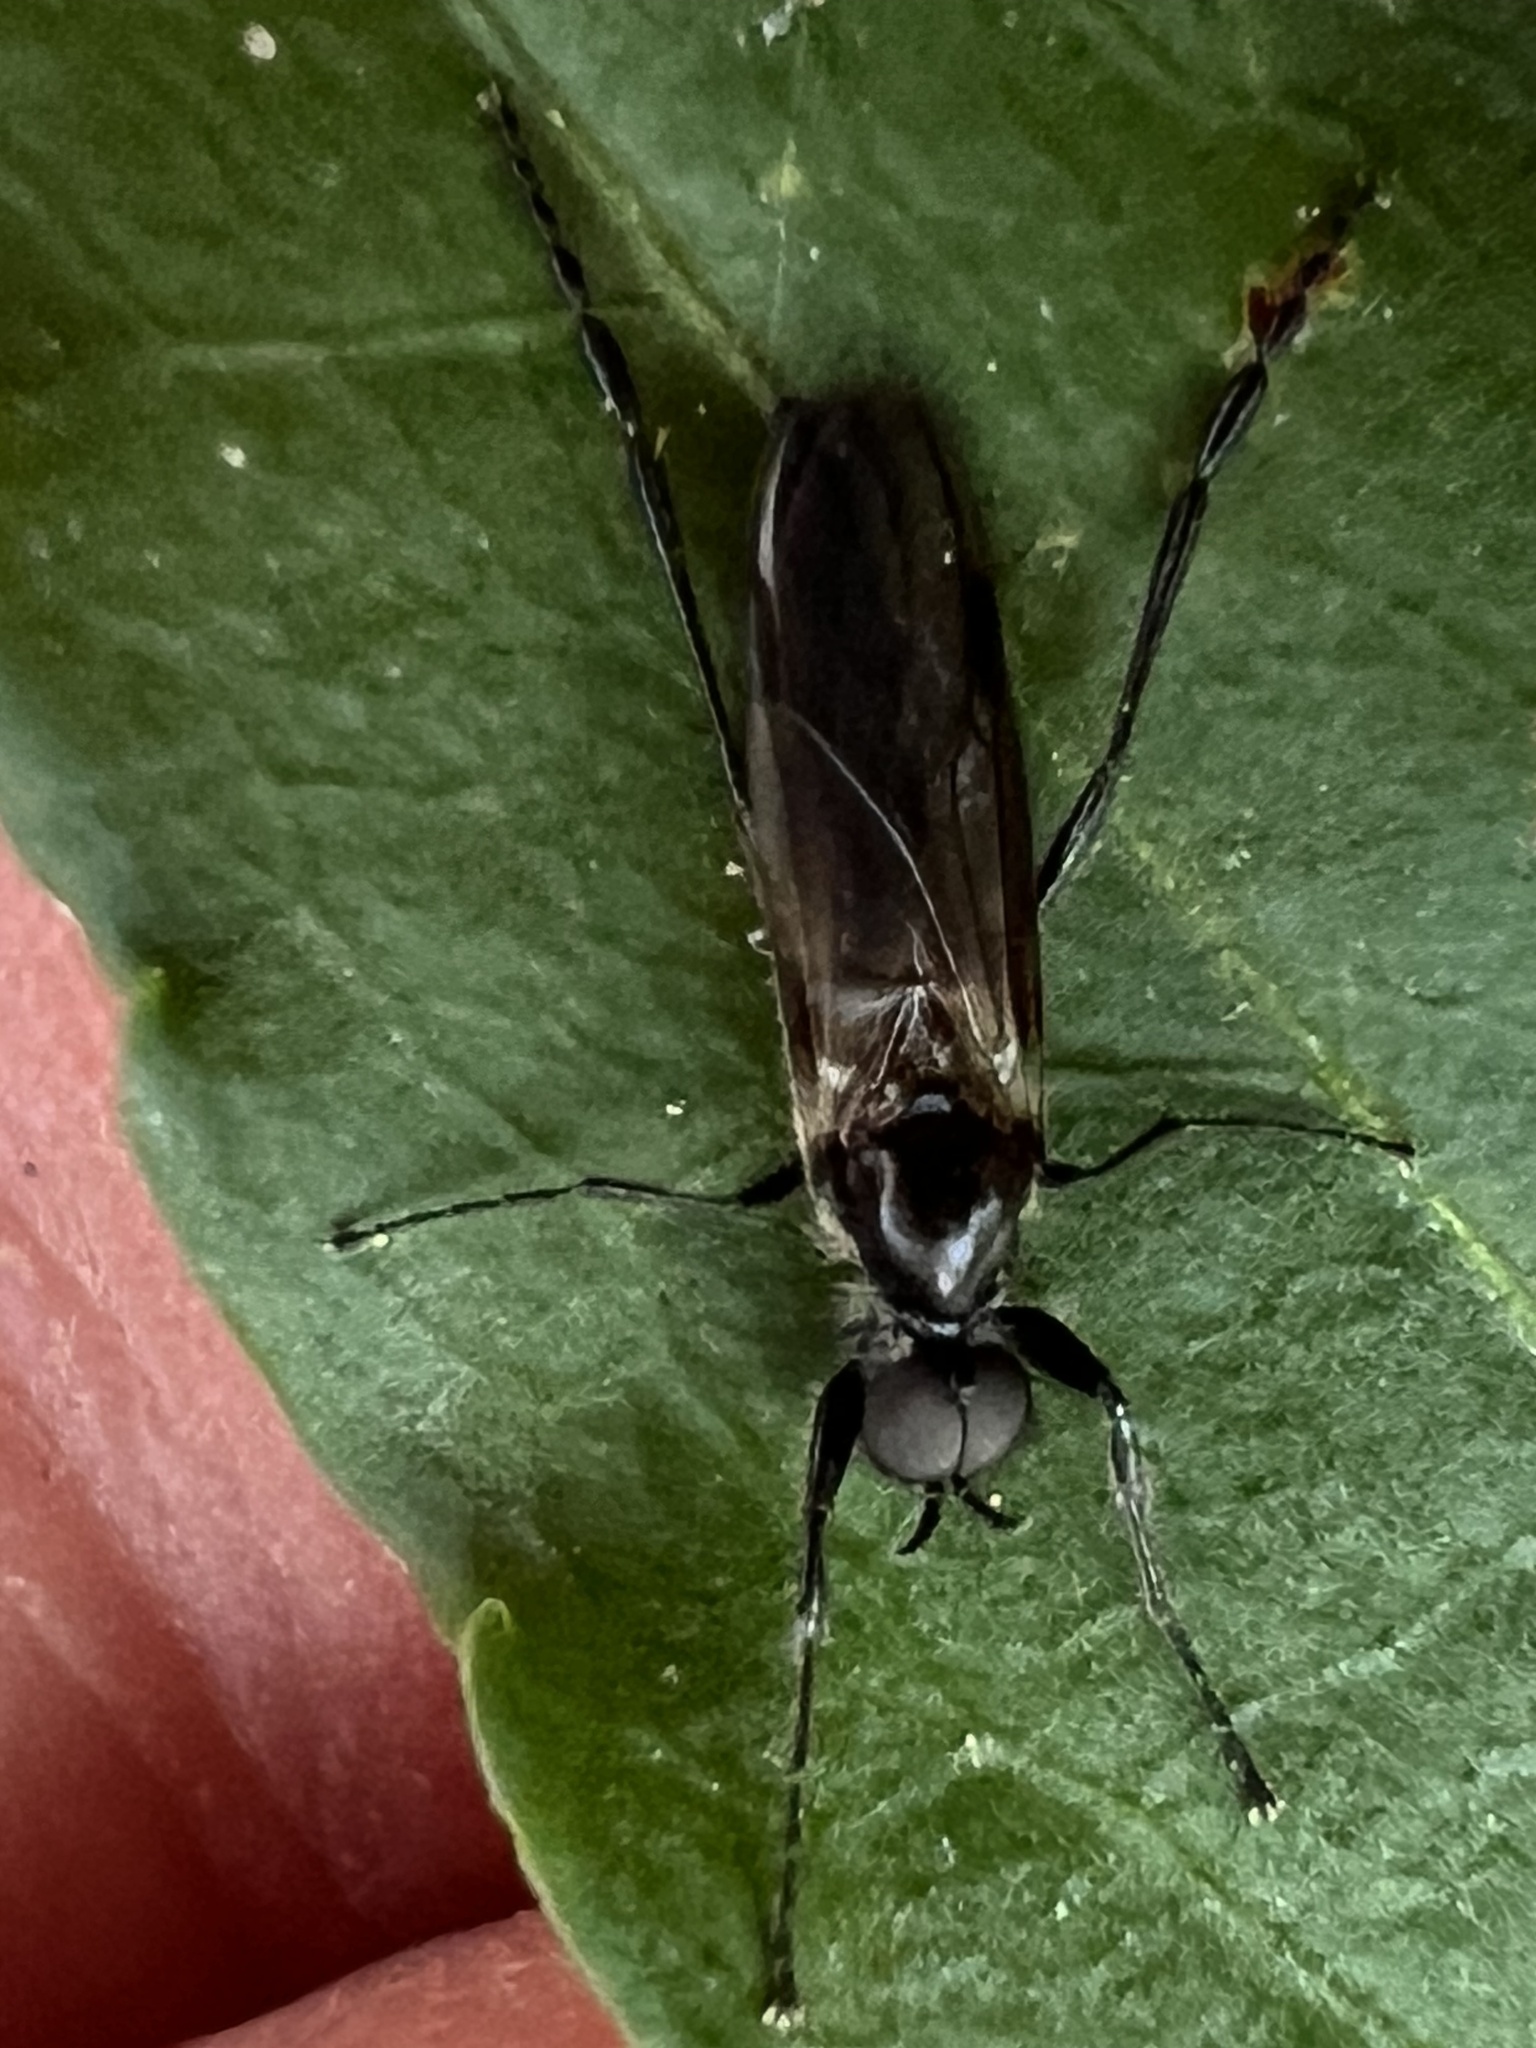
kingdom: Animalia
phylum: Arthropoda
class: Insecta
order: Diptera
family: Bibionidae
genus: Bibio
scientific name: Bibio longipes
